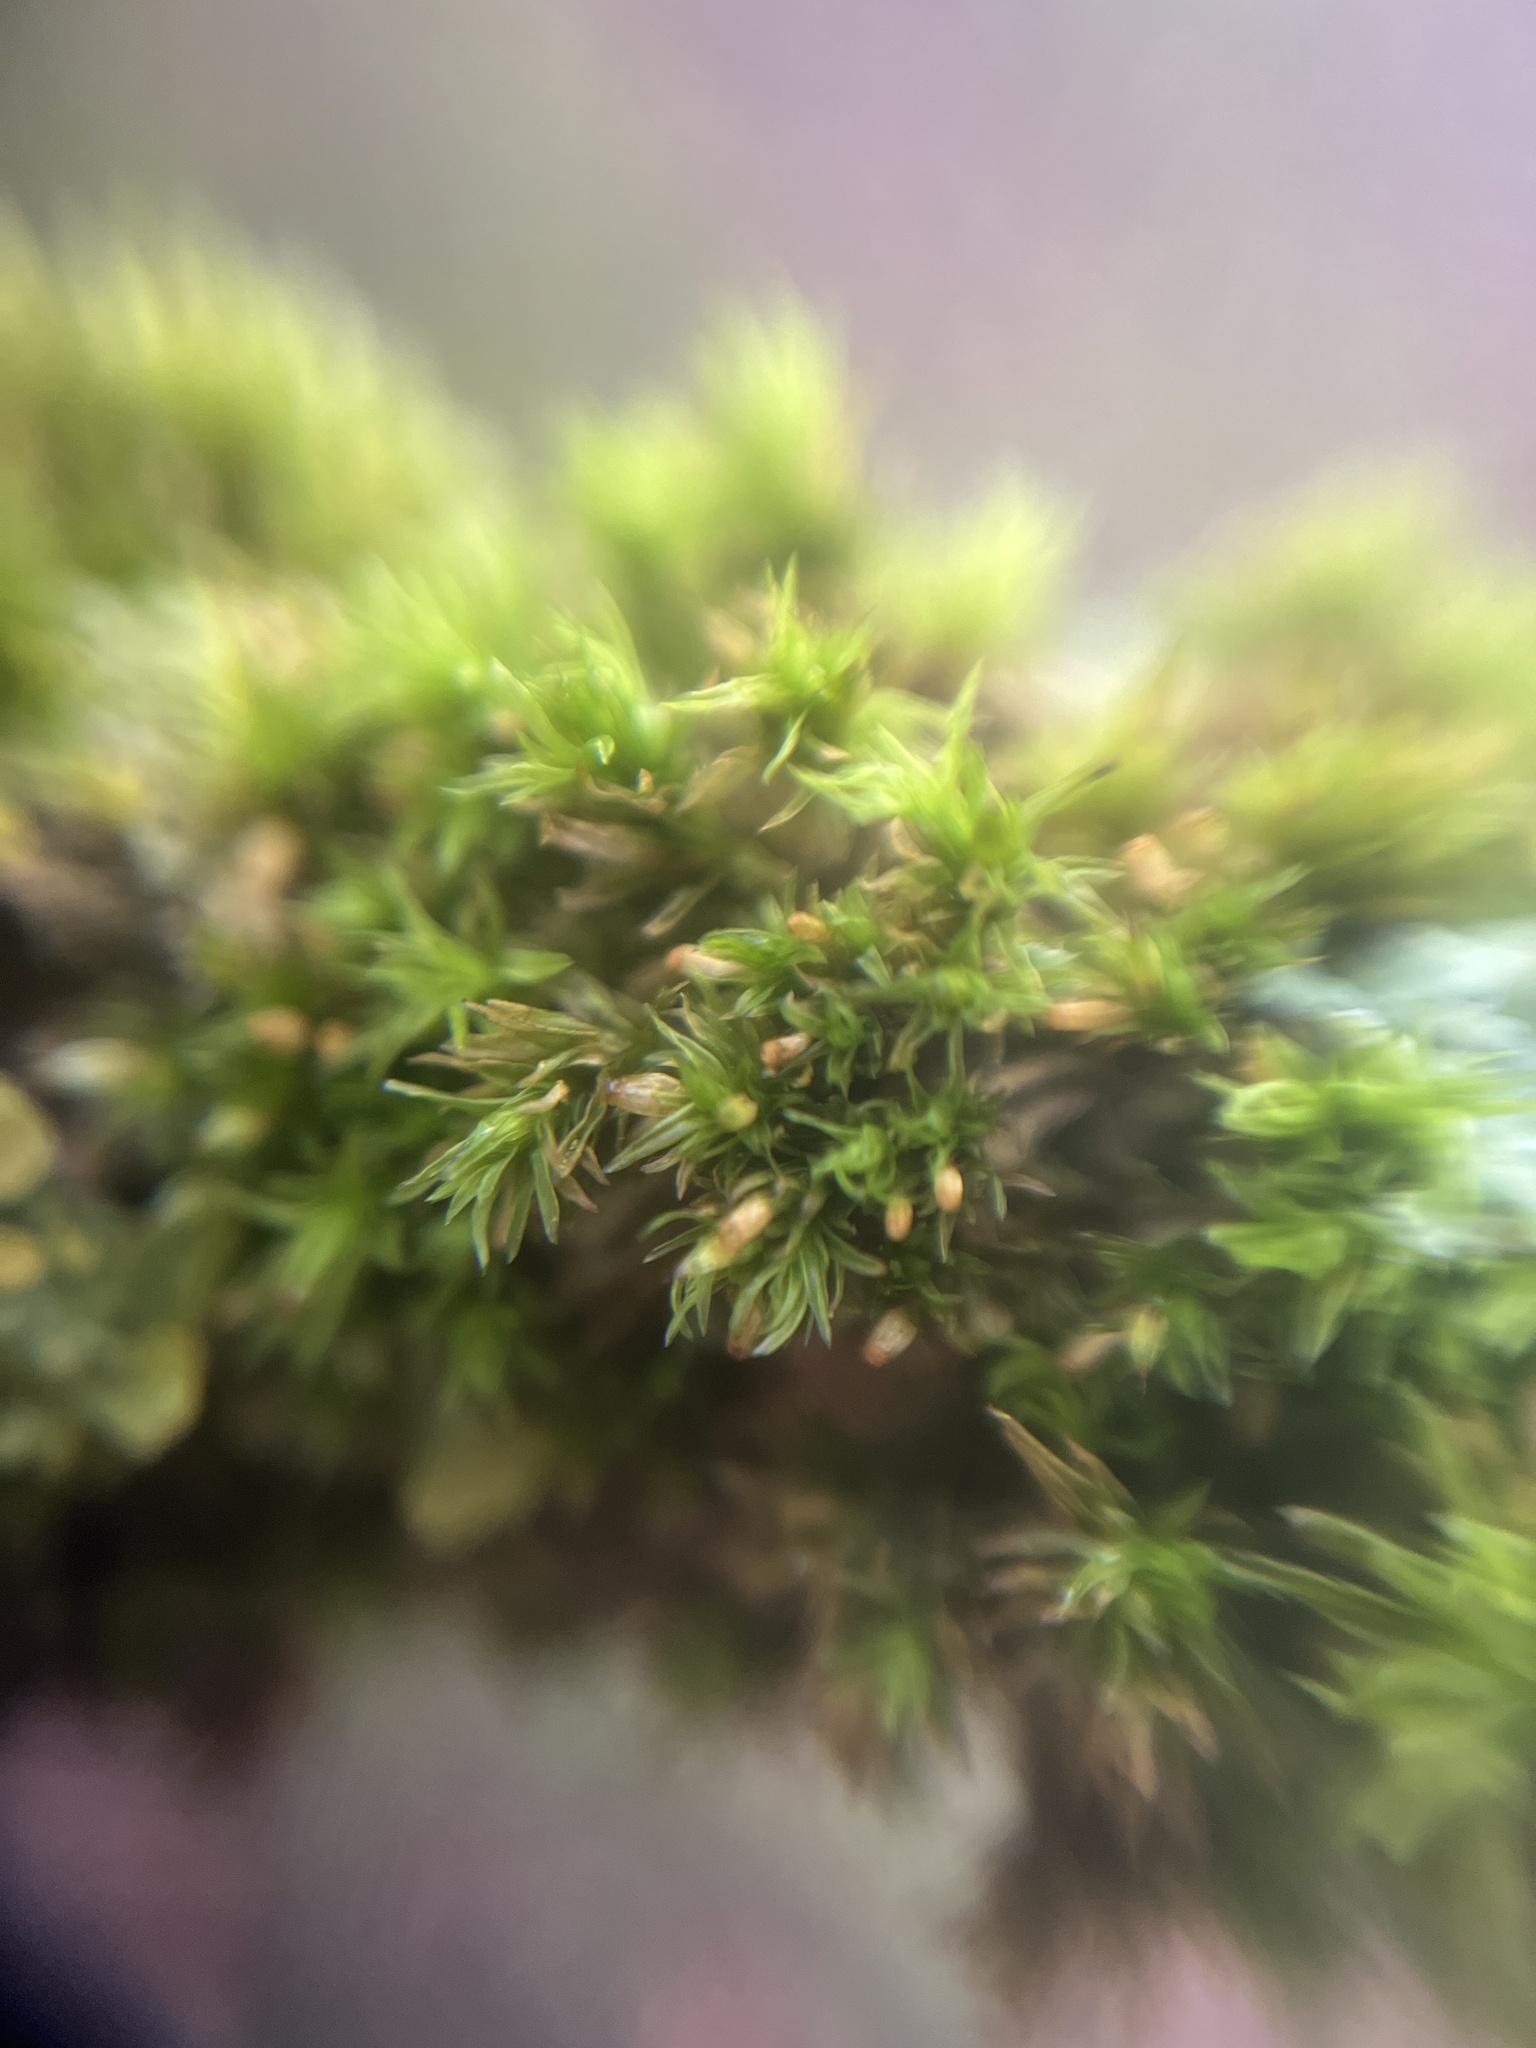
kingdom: Plantae
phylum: Bryophyta
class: Bryopsida
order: Orthotrichales
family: Orthotrichaceae
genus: Orthotrichum
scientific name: Orthotrichum pulchellum
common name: Elegant bristle-moss
